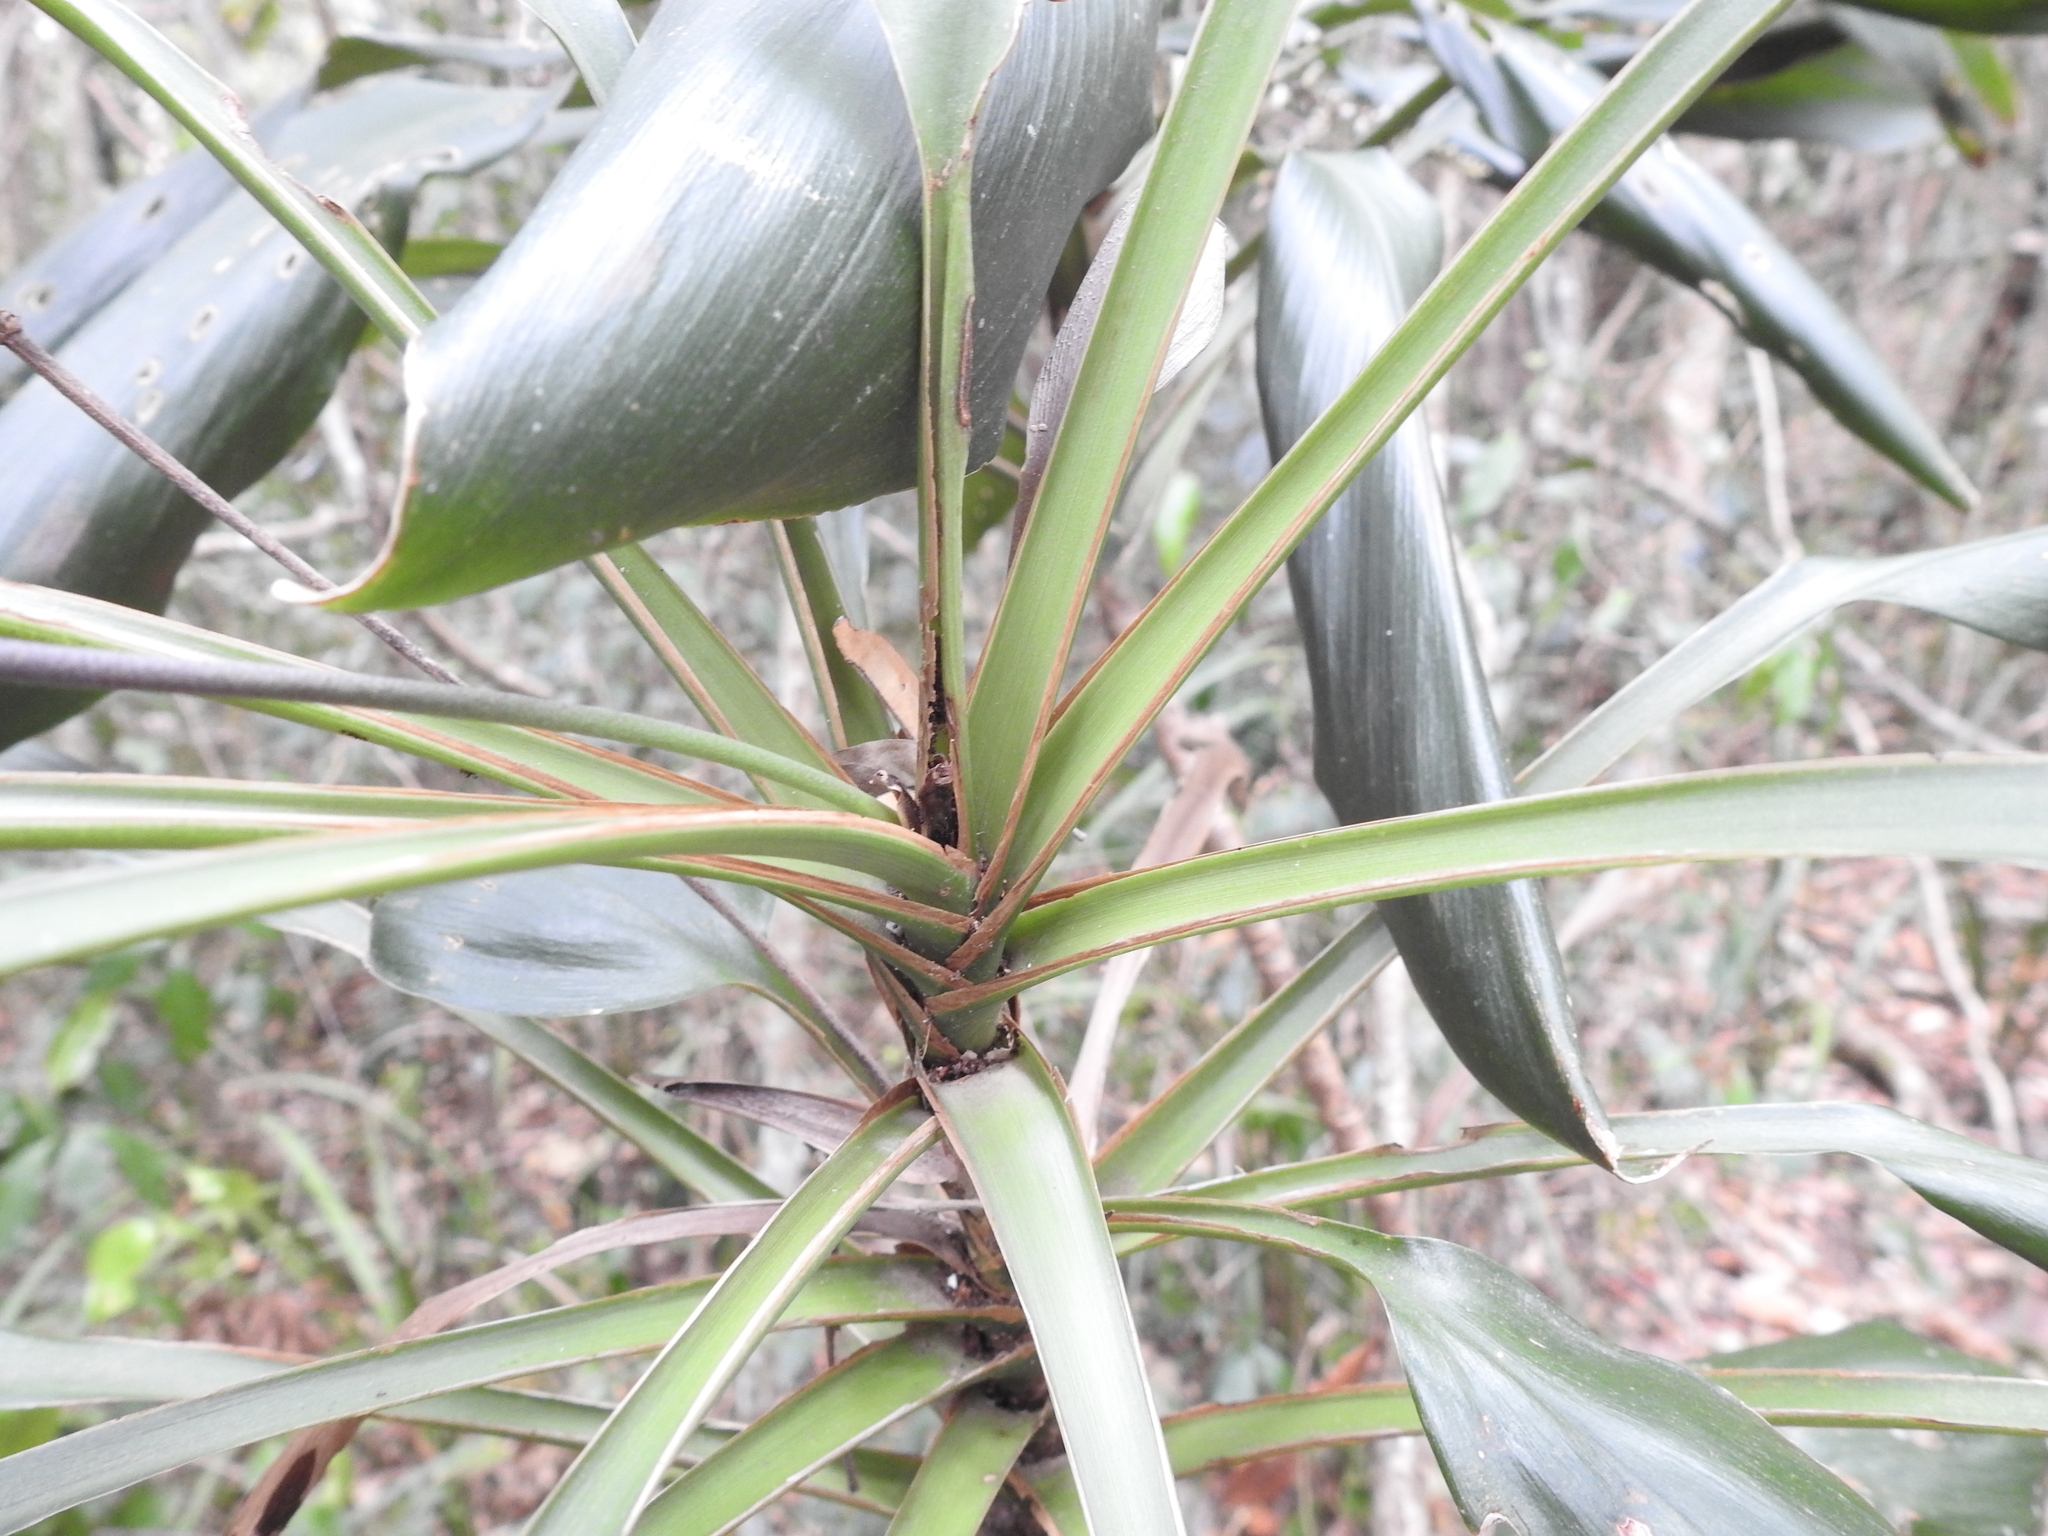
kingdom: Plantae
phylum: Tracheophyta
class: Liliopsida
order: Asparagales
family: Asparagaceae
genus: Cordyline
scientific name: Cordyline rubra
